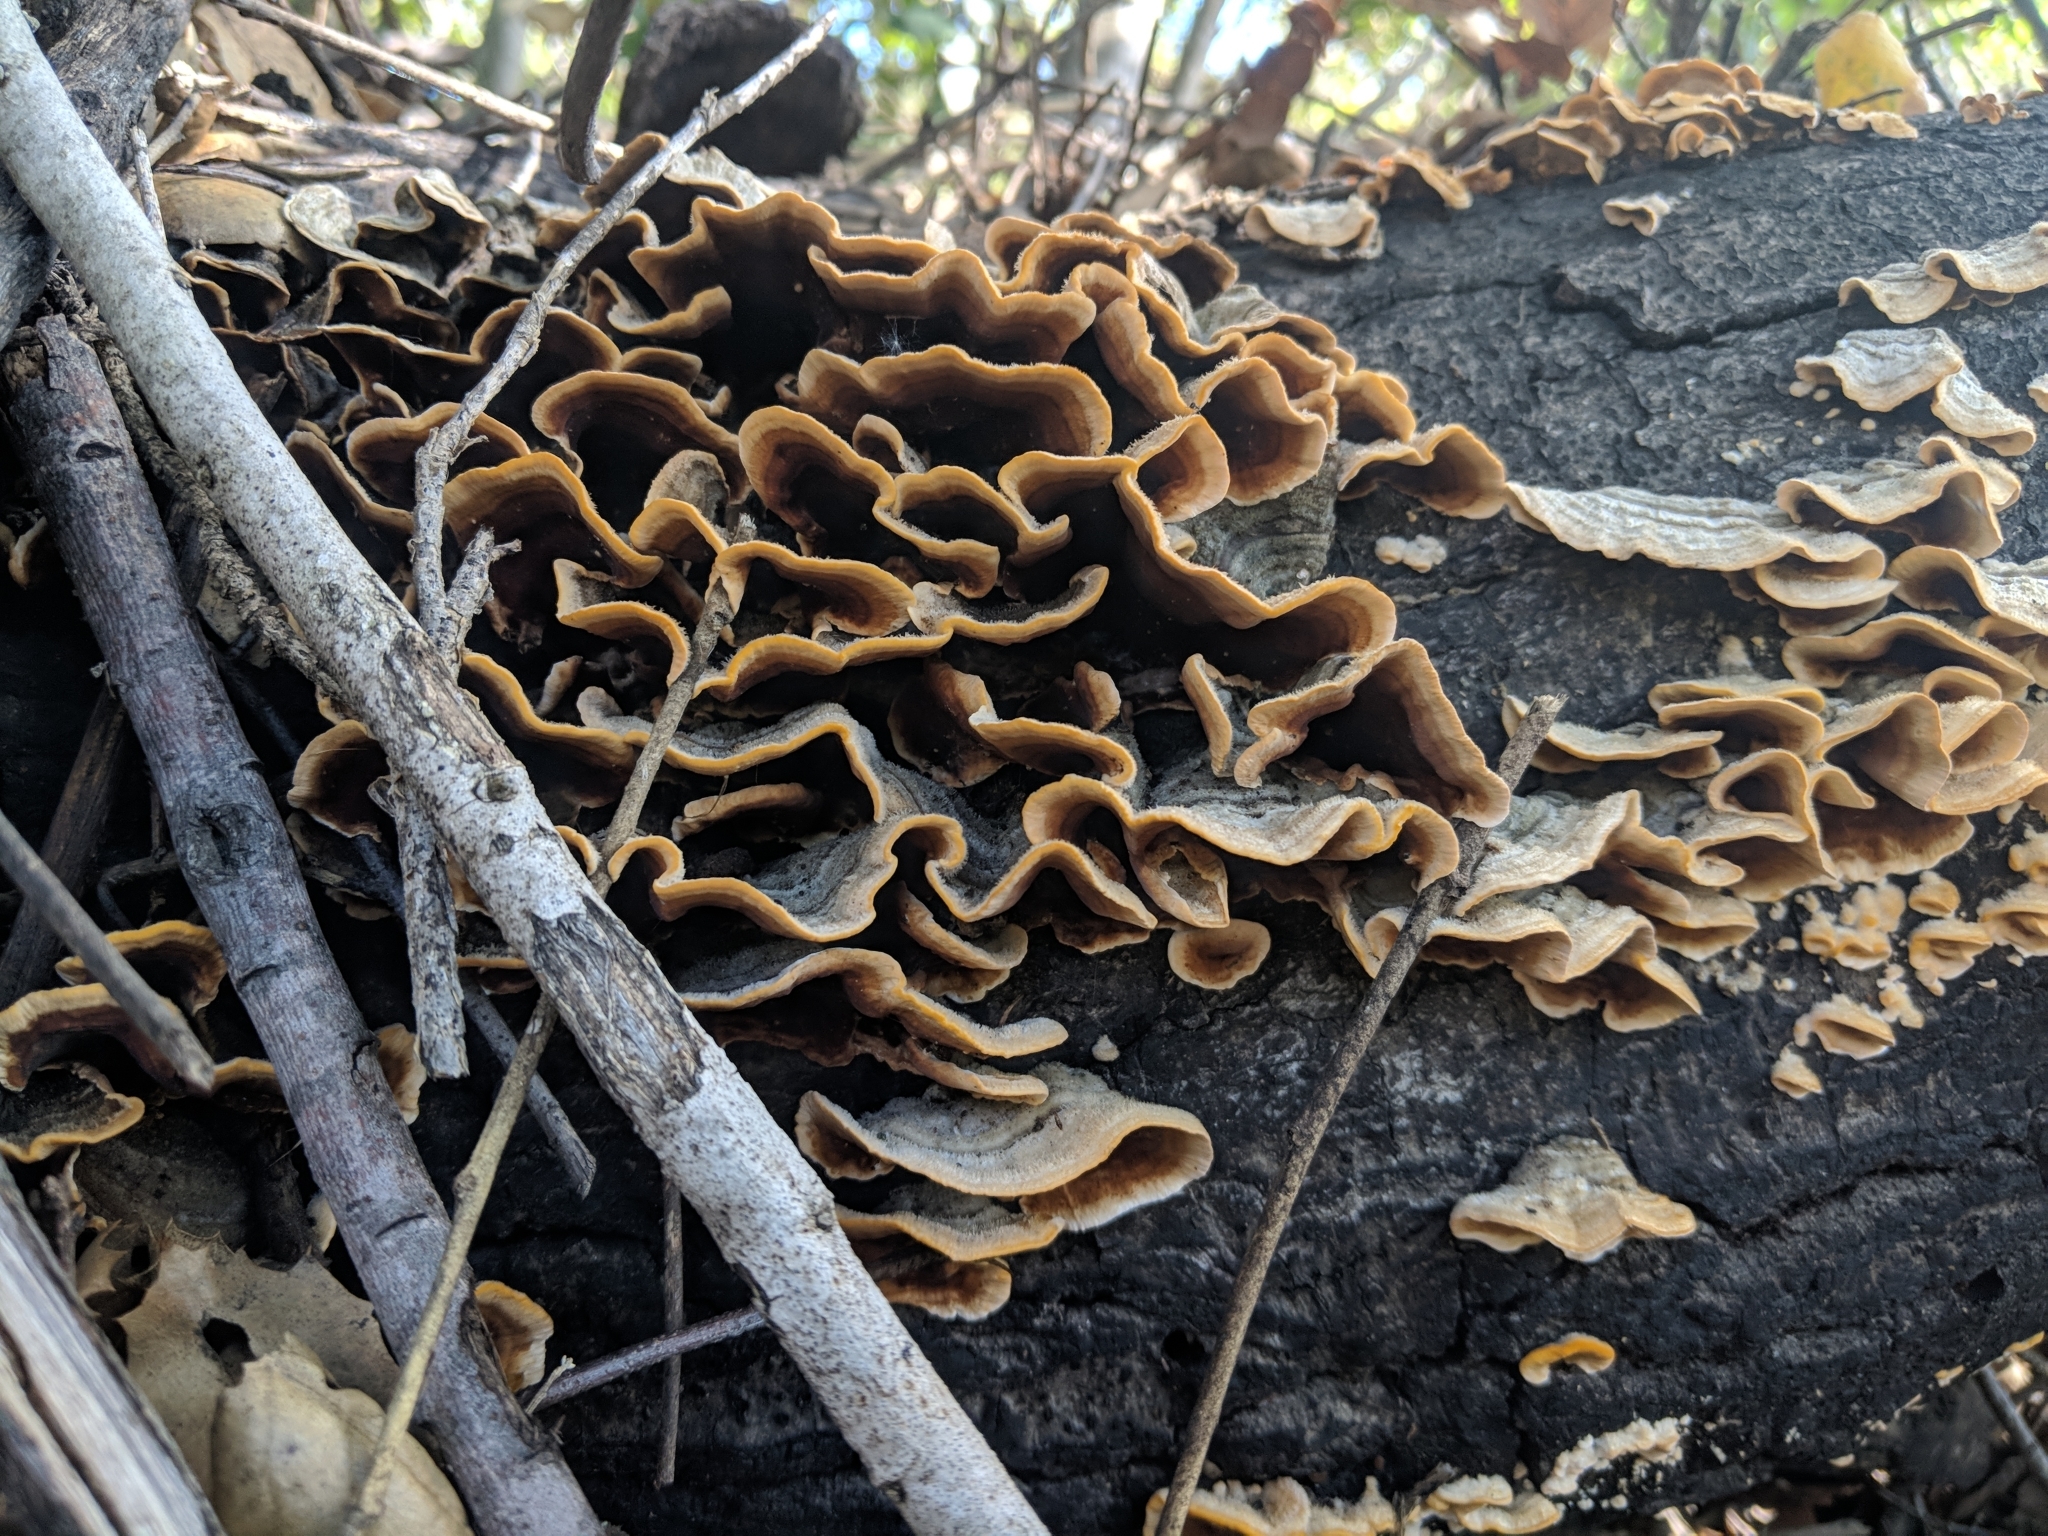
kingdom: Fungi
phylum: Basidiomycota
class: Agaricomycetes
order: Russulales
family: Stereaceae
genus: Stereum
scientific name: Stereum hirsutum
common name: Hairy curtain crust
